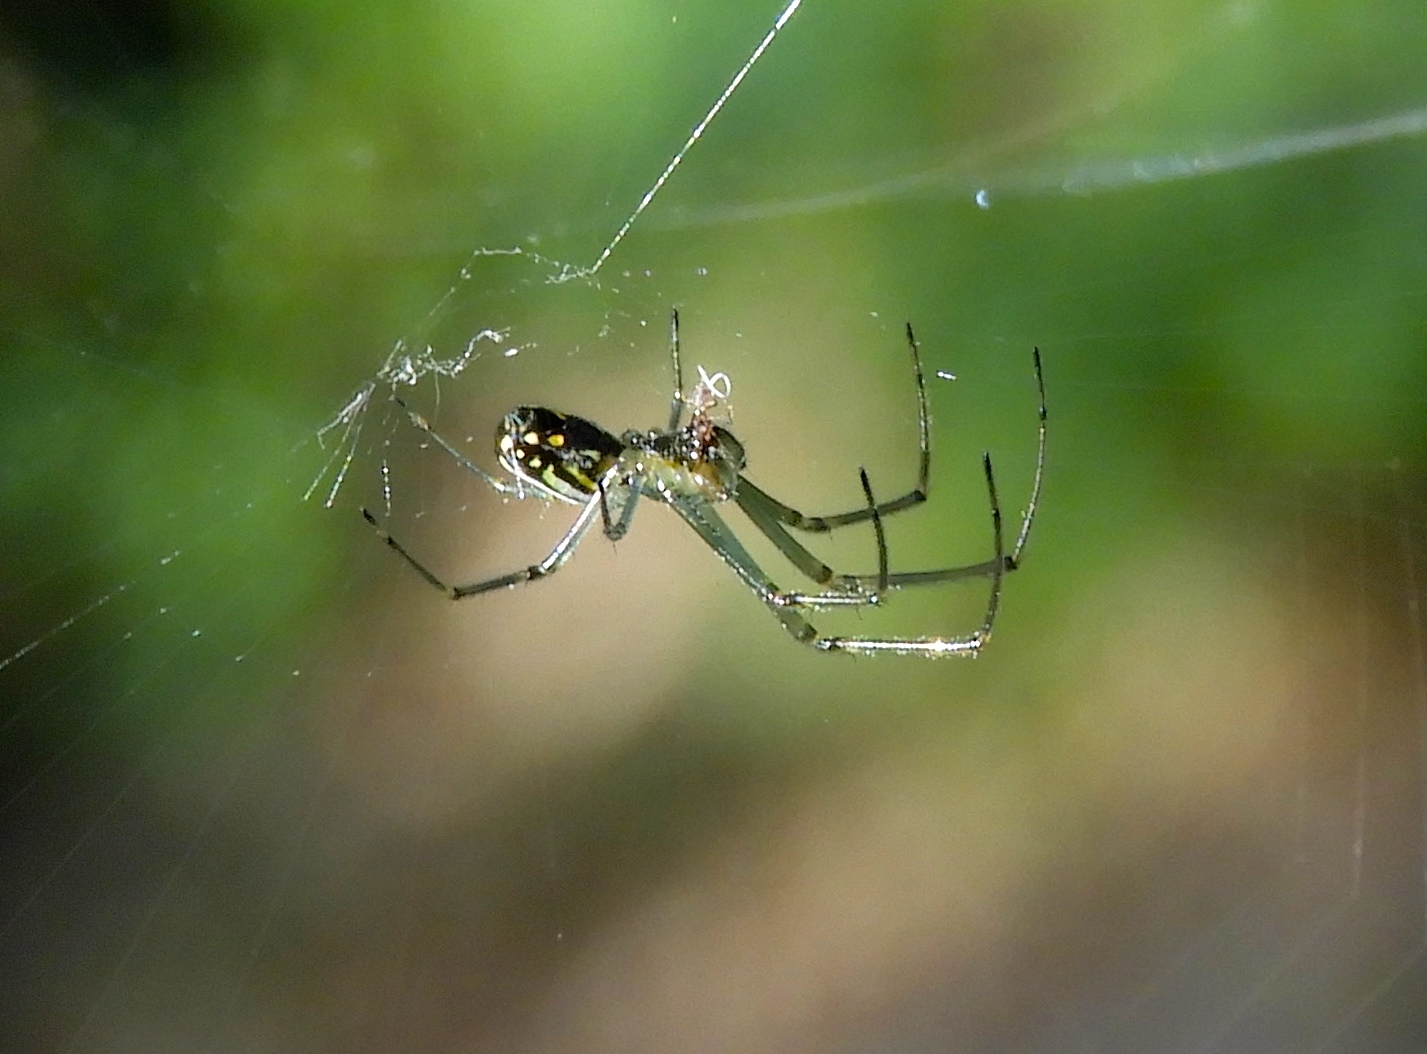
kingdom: Animalia
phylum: Arthropoda
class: Arachnida
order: Araneae
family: Tetragnathidae
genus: Leucauge
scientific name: Leucauge
